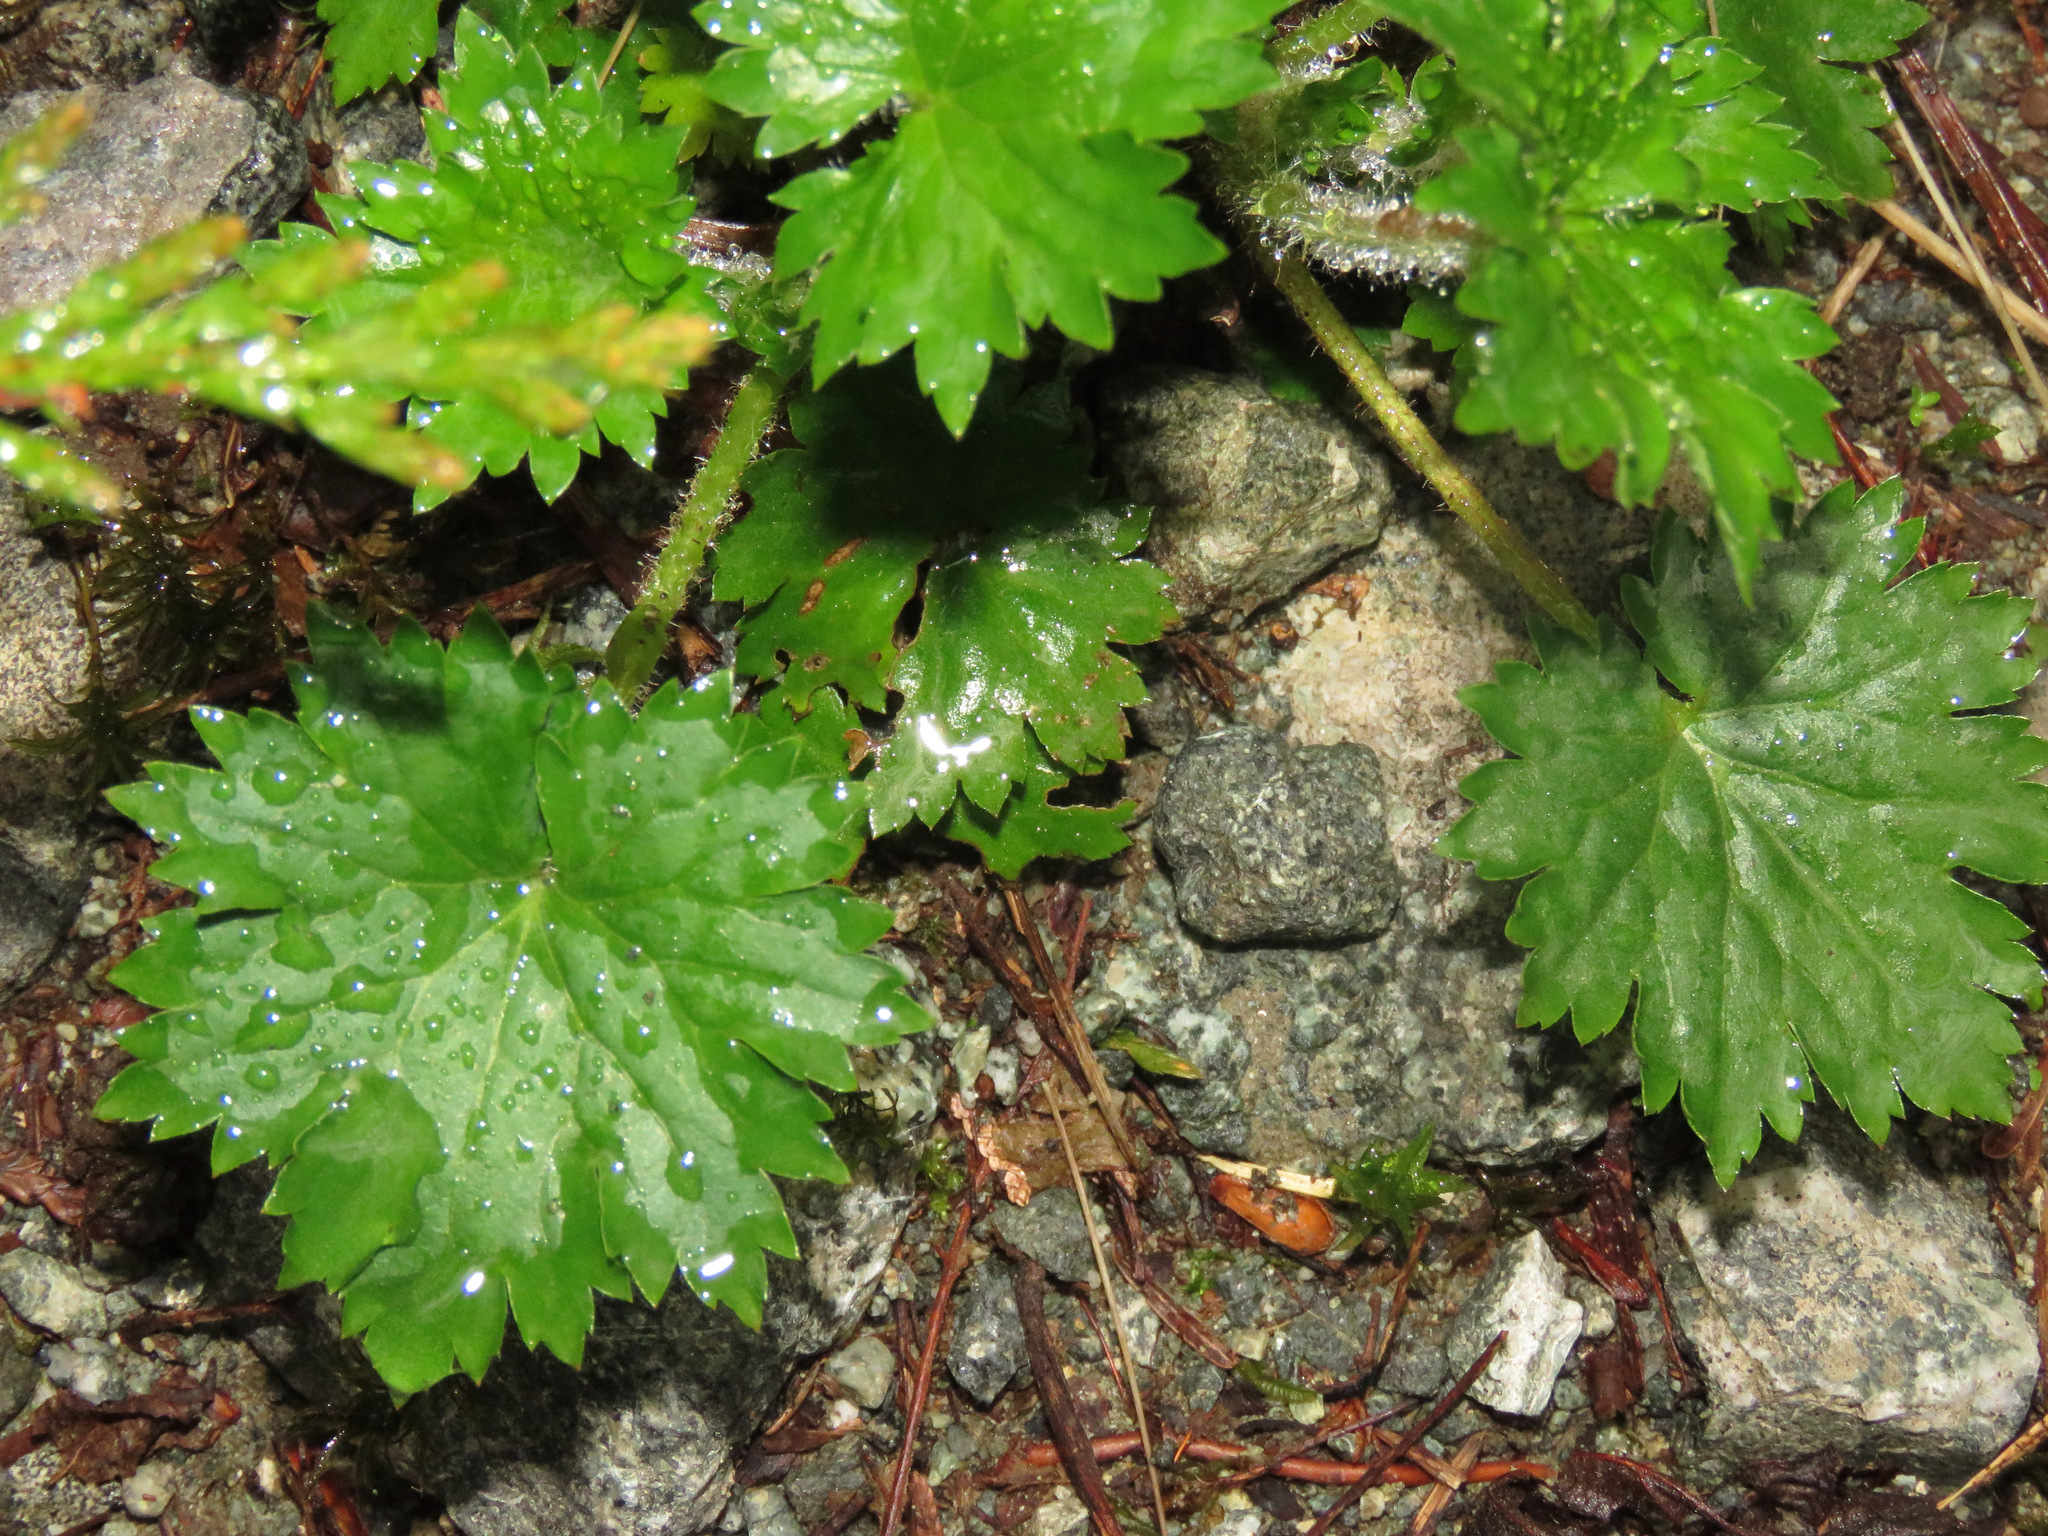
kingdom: Plantae
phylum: Tracheophyta
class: Magnoliopsida
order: Saxifragales
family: Saxifragaceae
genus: Boykinia
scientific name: Boykinia occidentalis
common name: Coast boykinia
